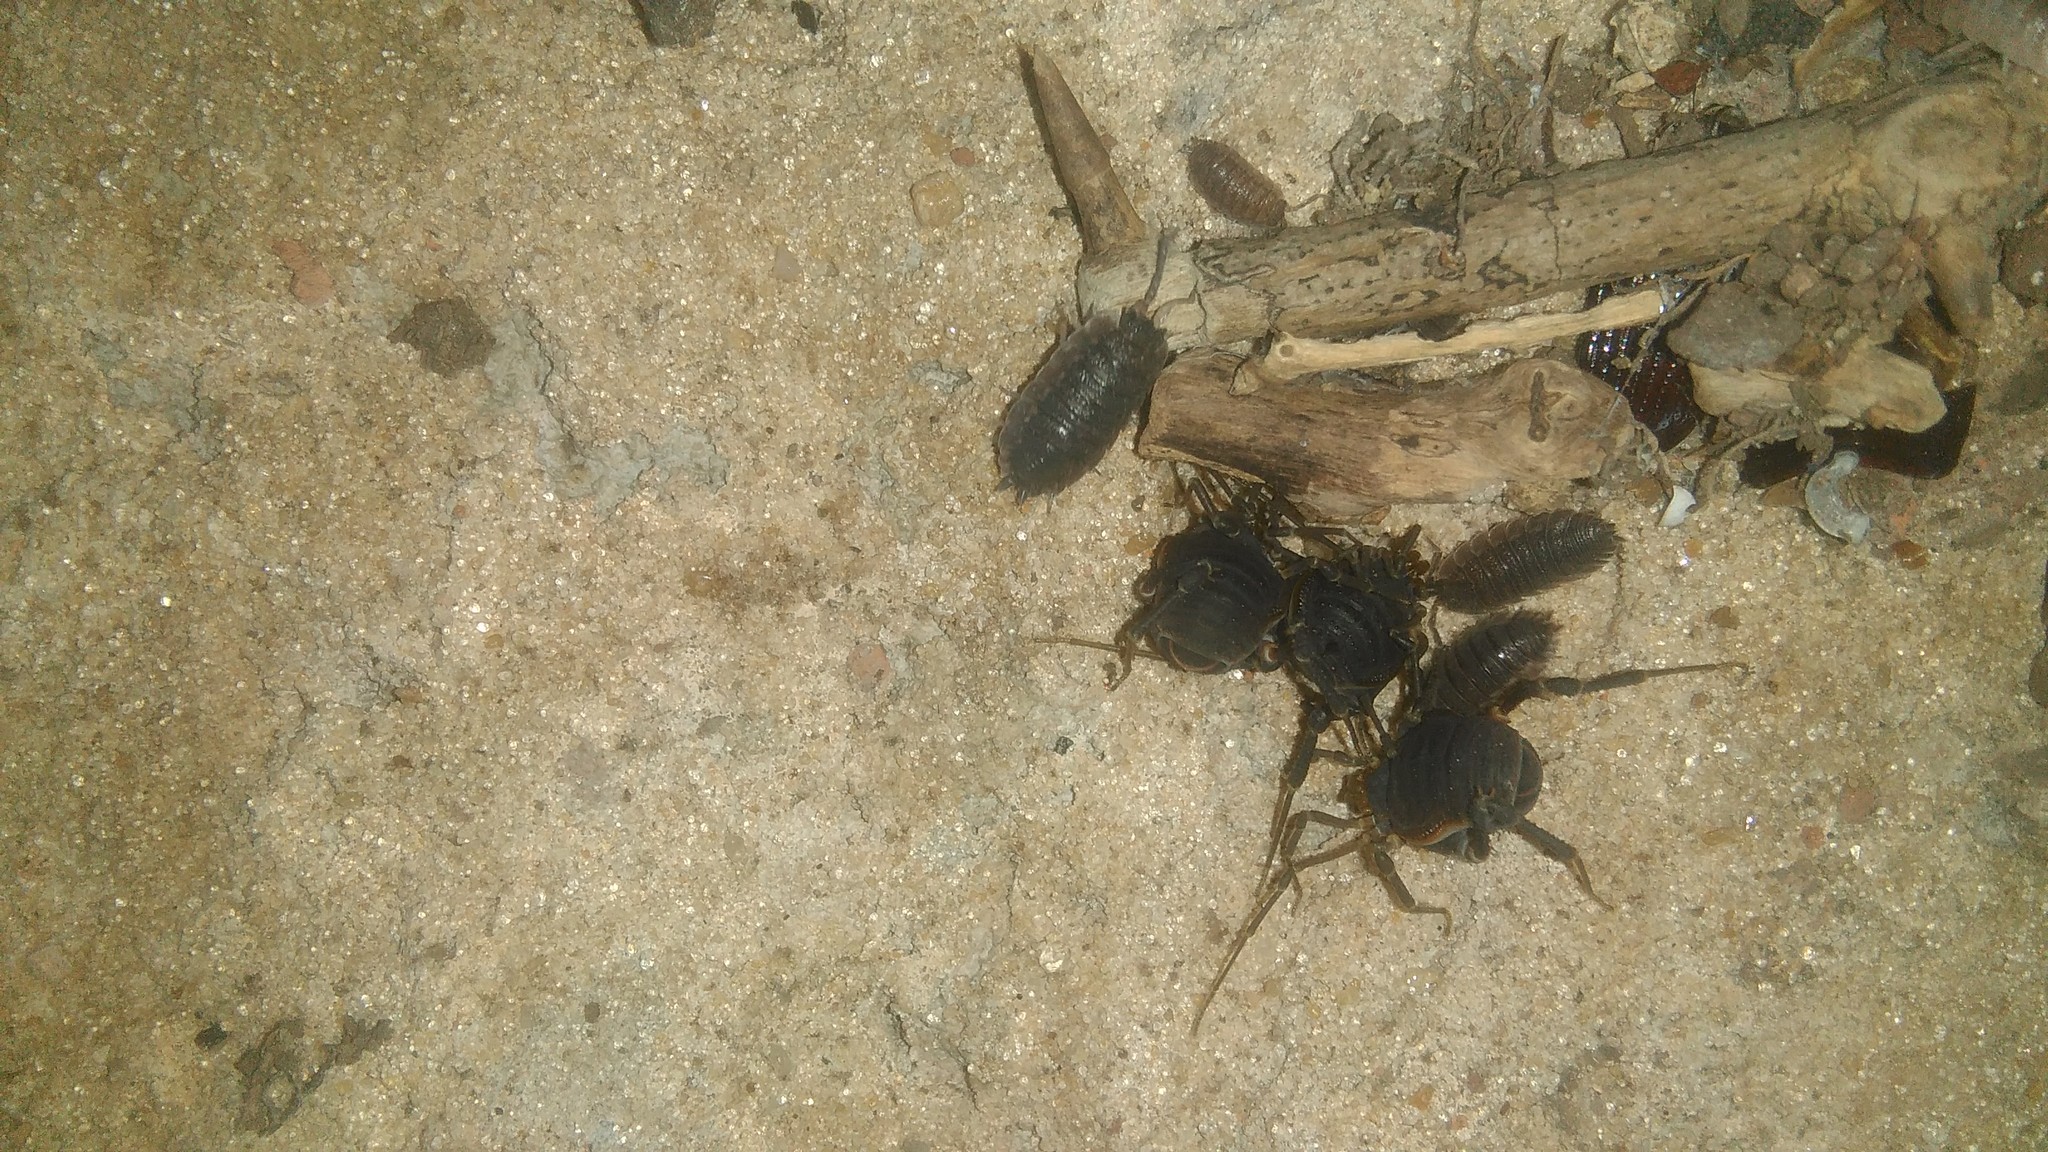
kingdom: Animalia
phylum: Arthropoda
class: Malacostraca
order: Isopoda
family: Porcellionidae
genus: Porcellio
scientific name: Porcellio scaber
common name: Common rough woodlouse
